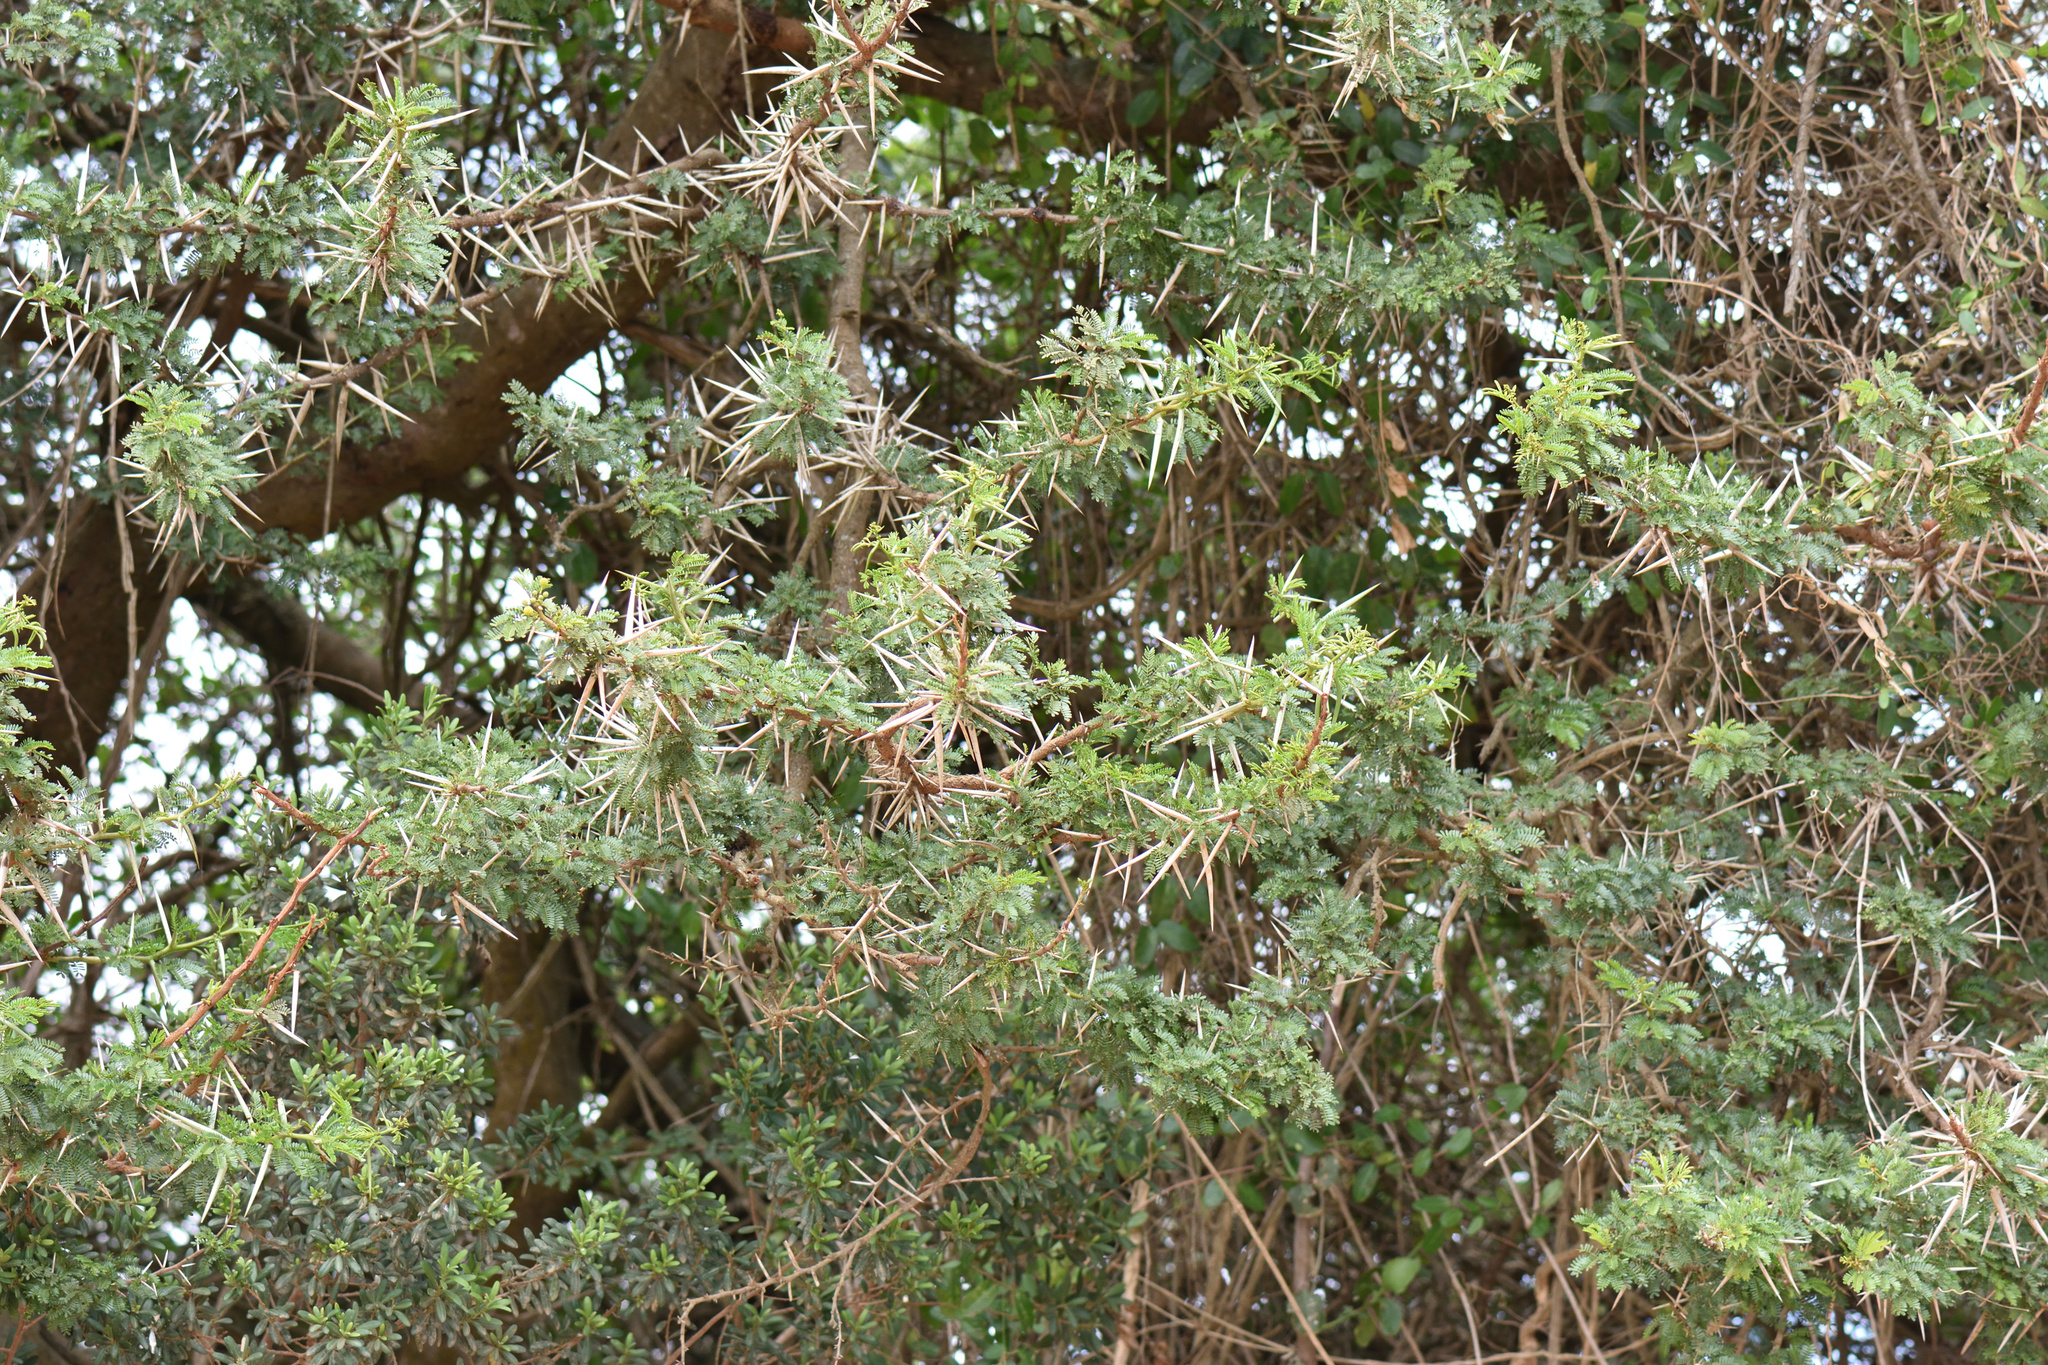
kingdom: Plantae
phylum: Tracheophyta
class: Magnoliopsida
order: Fabales
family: Fabaceae
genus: Vachellia
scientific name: Vachellia karroo
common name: Sweet thorn
